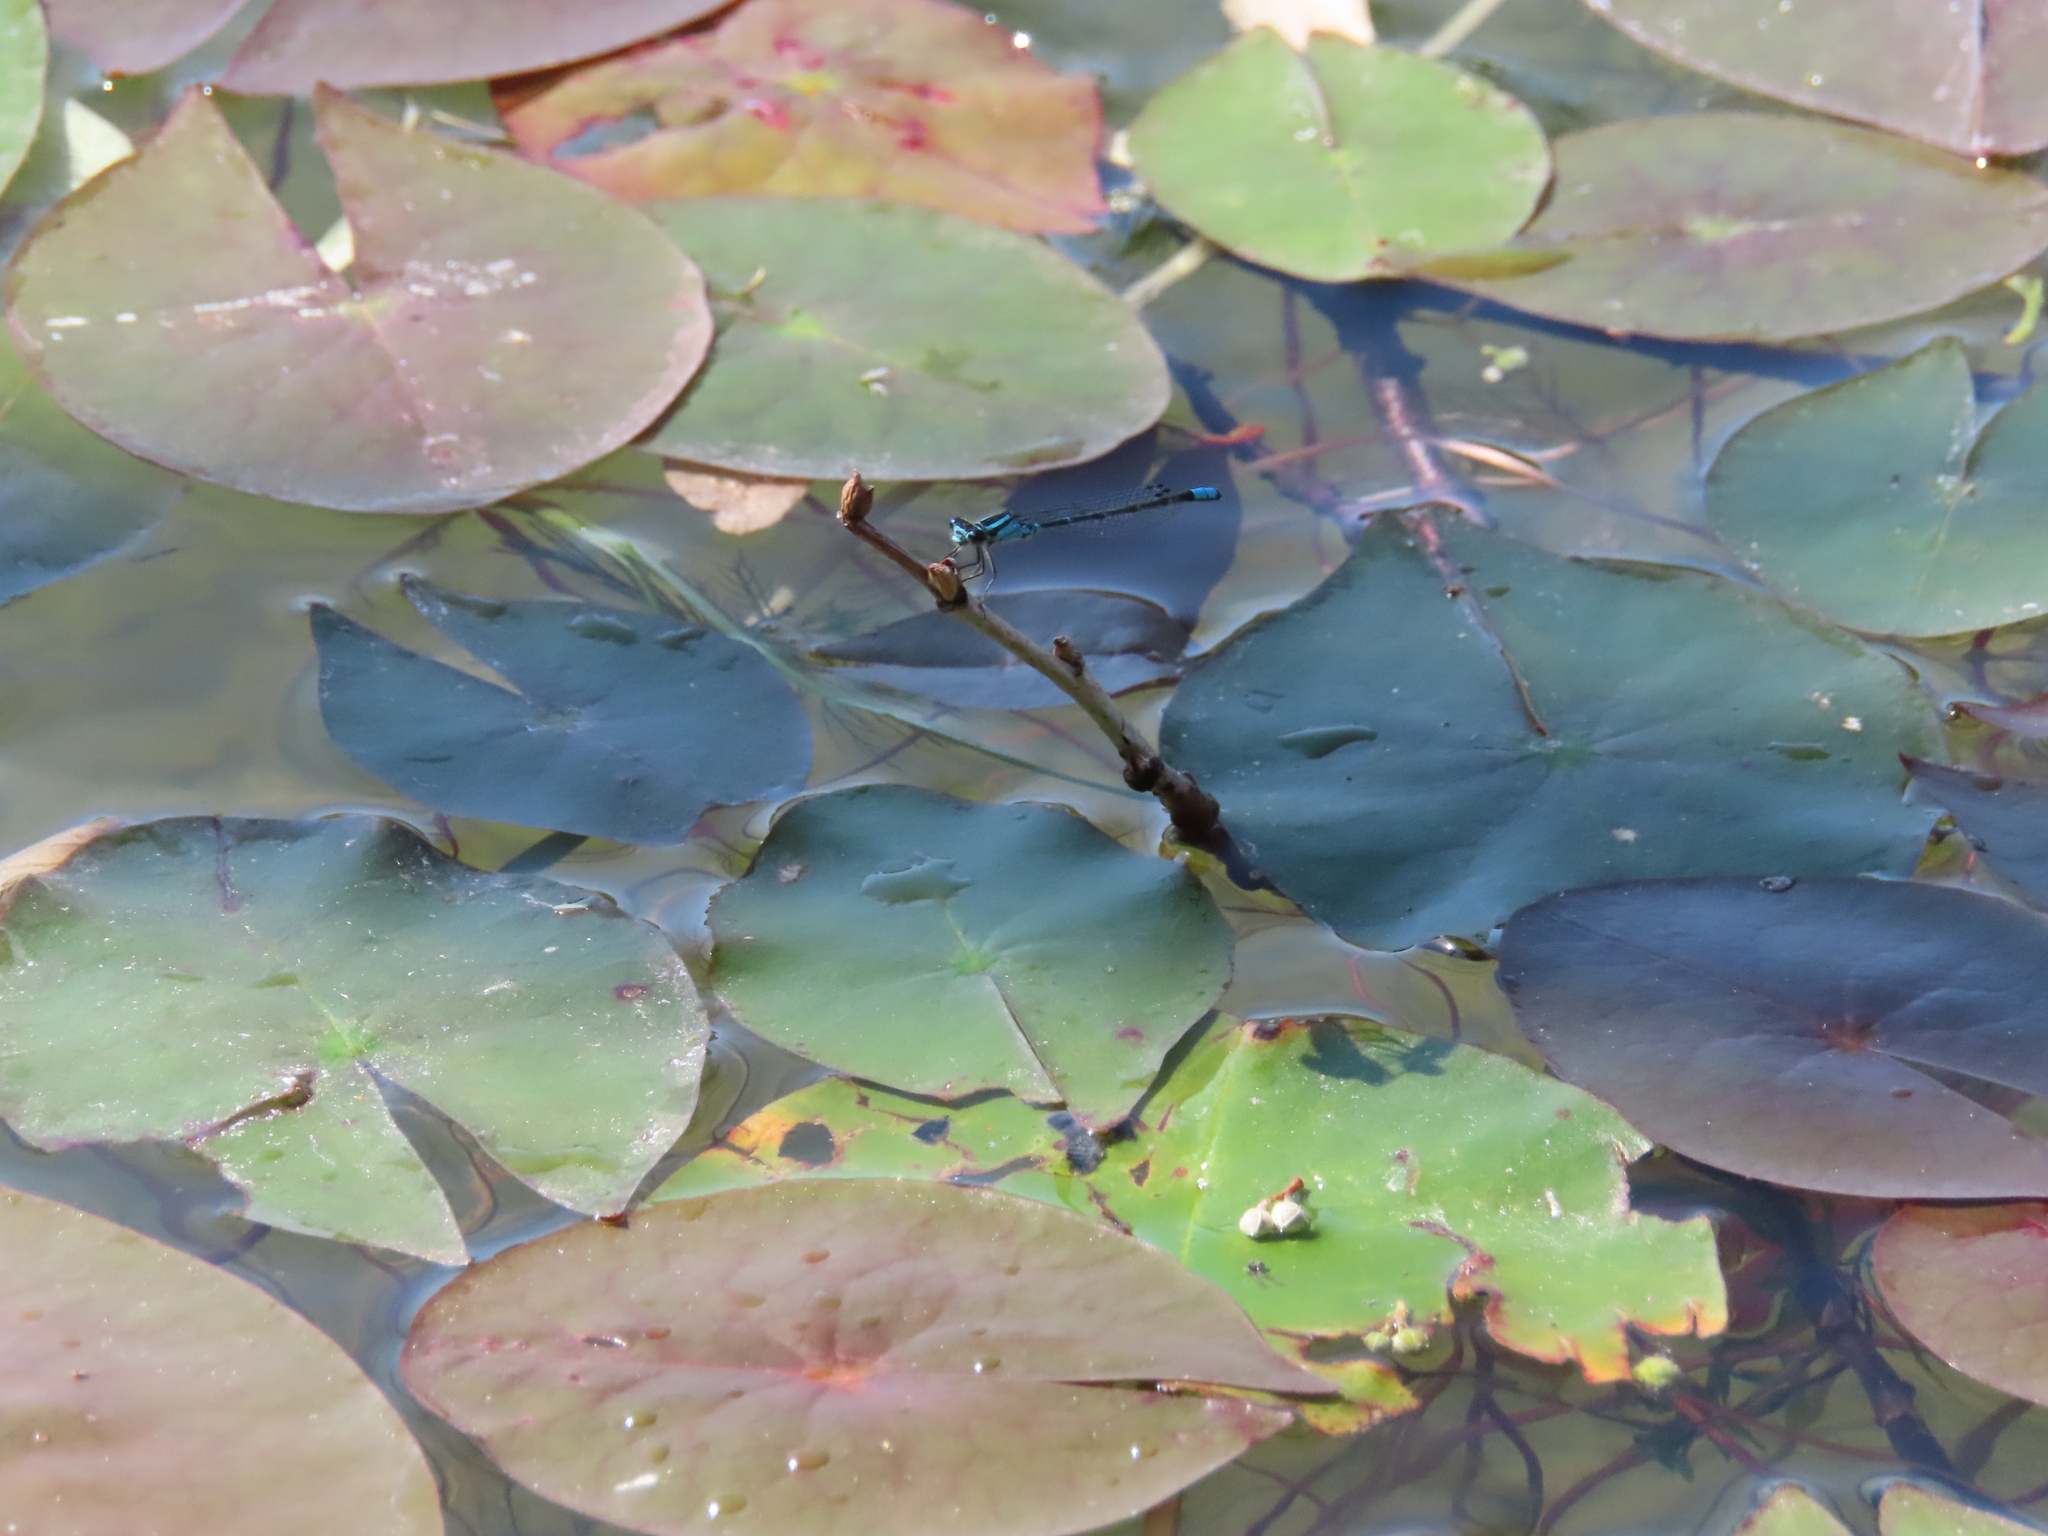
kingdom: Animalia
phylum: Arthropoda
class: Insecta
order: Odonata
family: Coenagrionidae
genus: Enallagma
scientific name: Enallagma geminatum
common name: Skimming bluet
